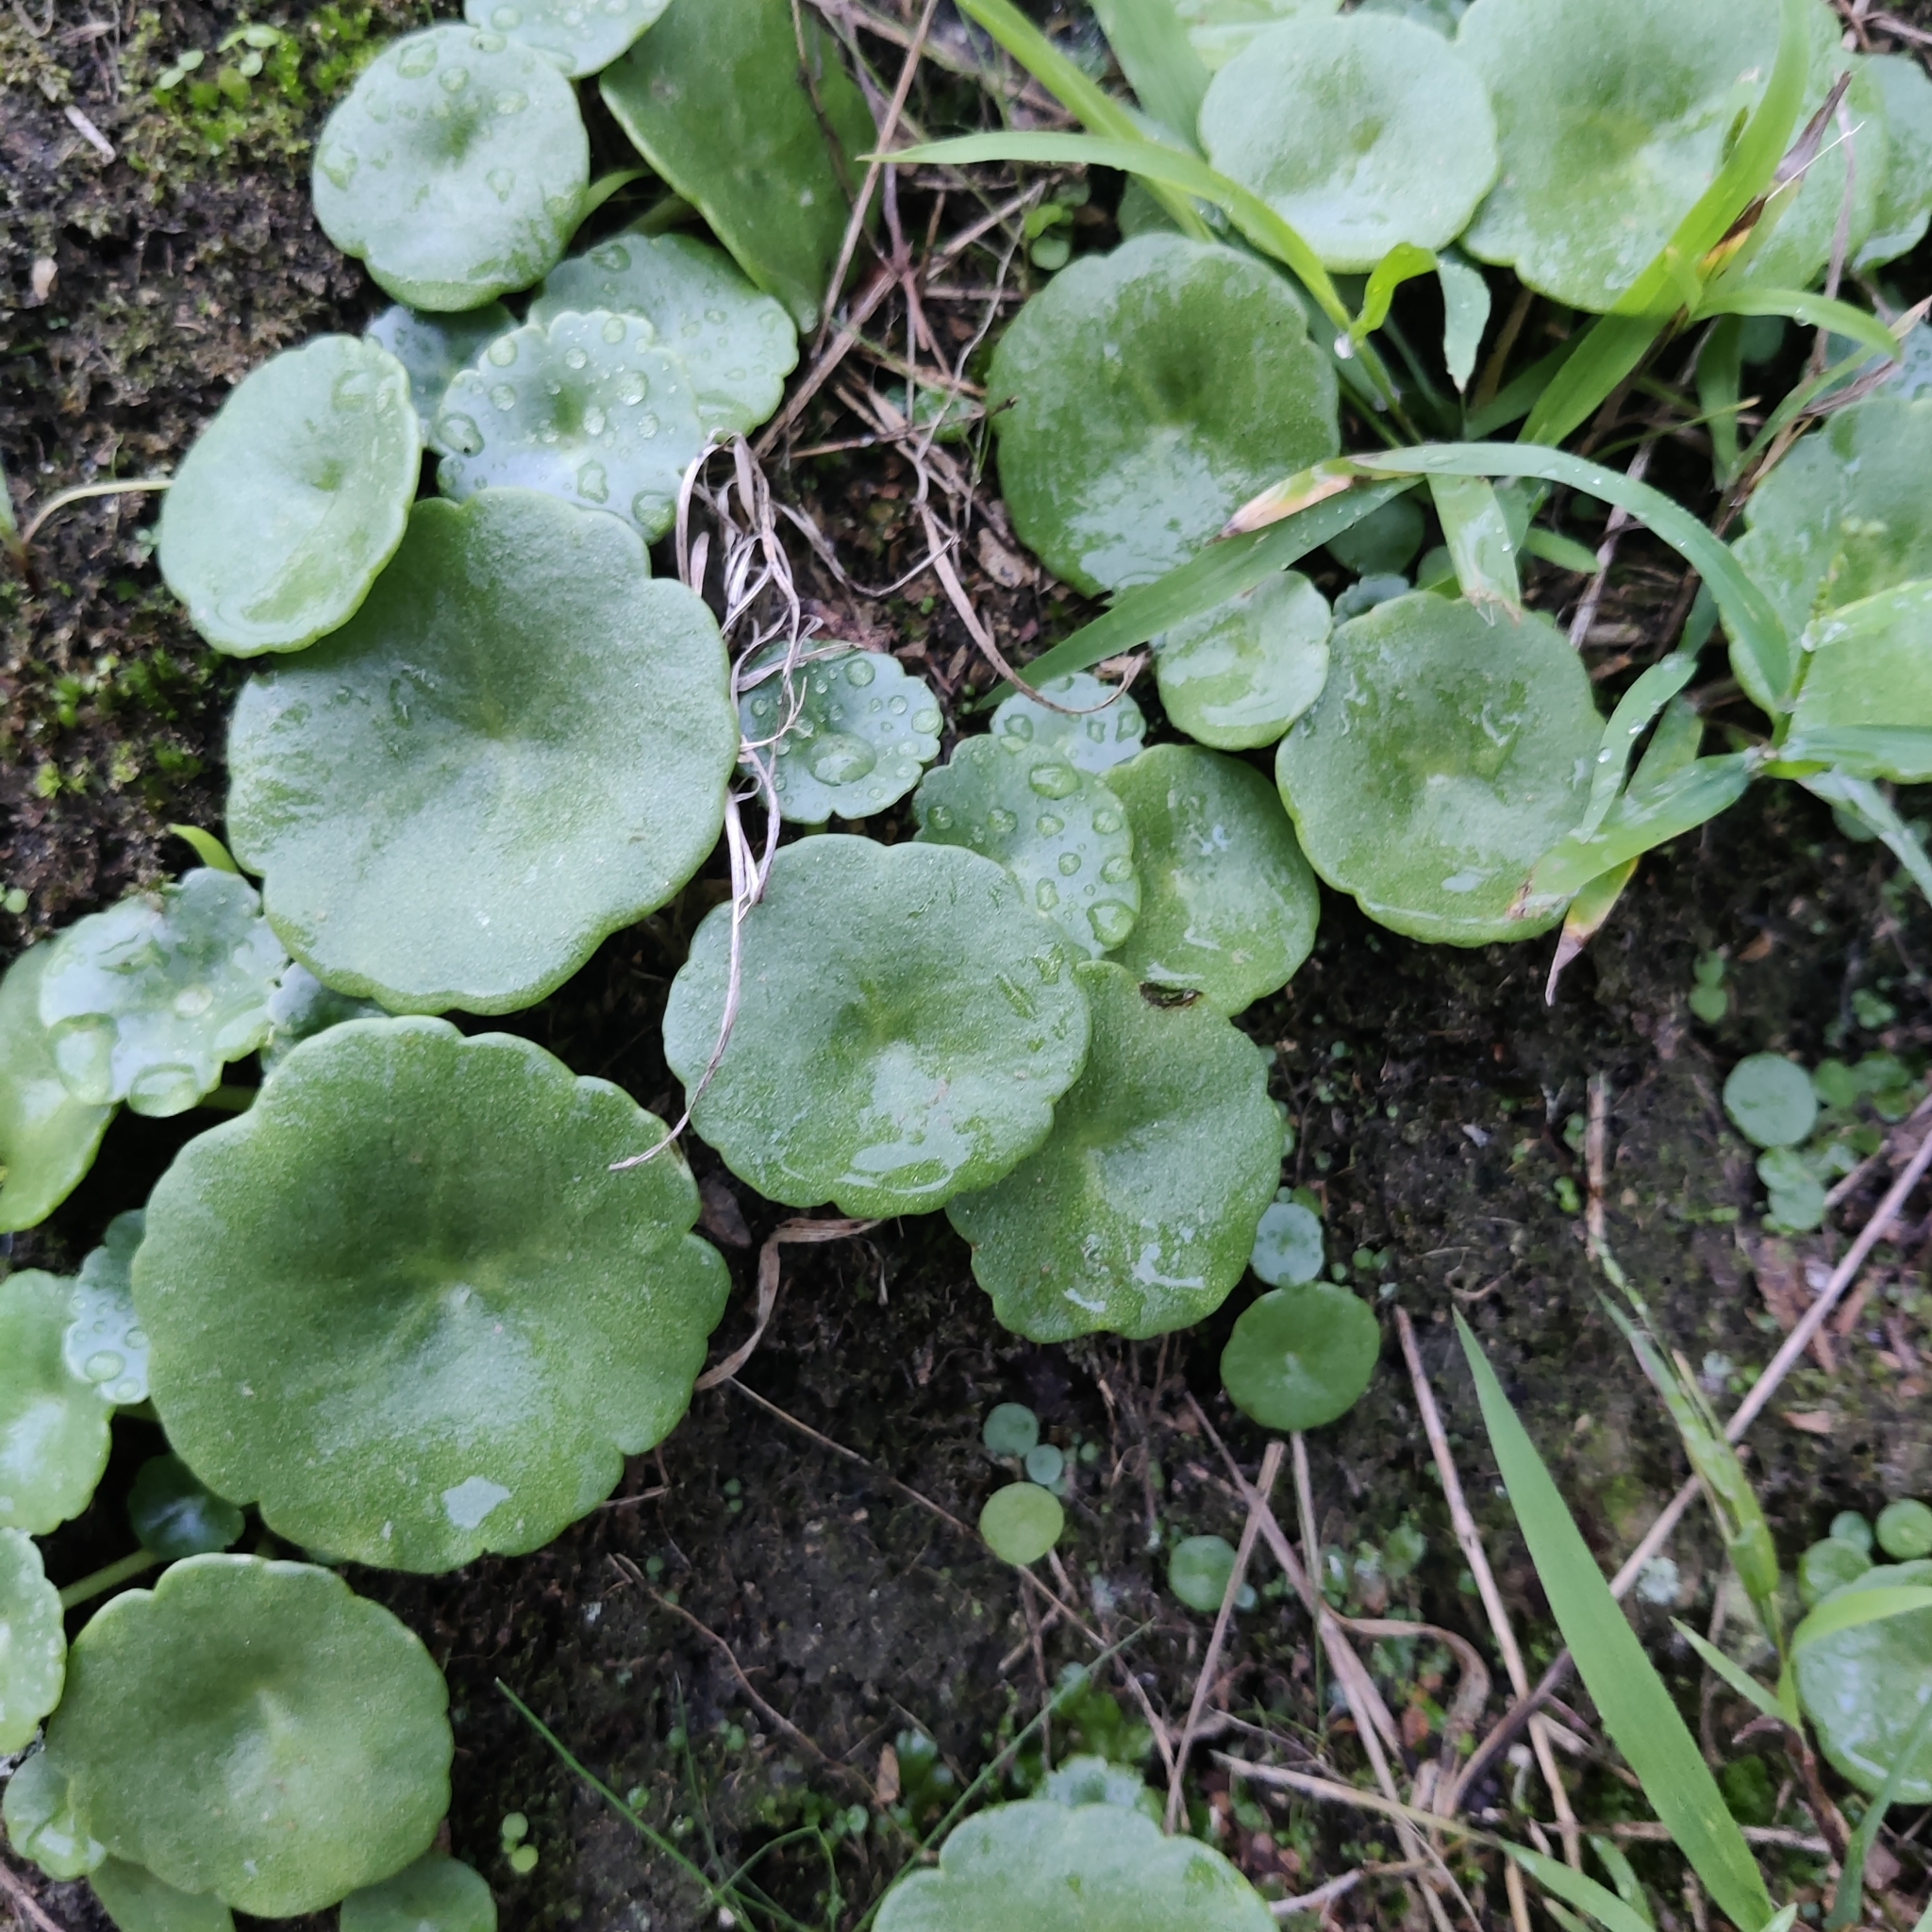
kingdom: Plantae
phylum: Tracheophyta
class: Magnoliopsida
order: Saxifragales
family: Crassulaceae
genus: Umbilicus
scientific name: Umbilicus rupestris
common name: Navelwort
